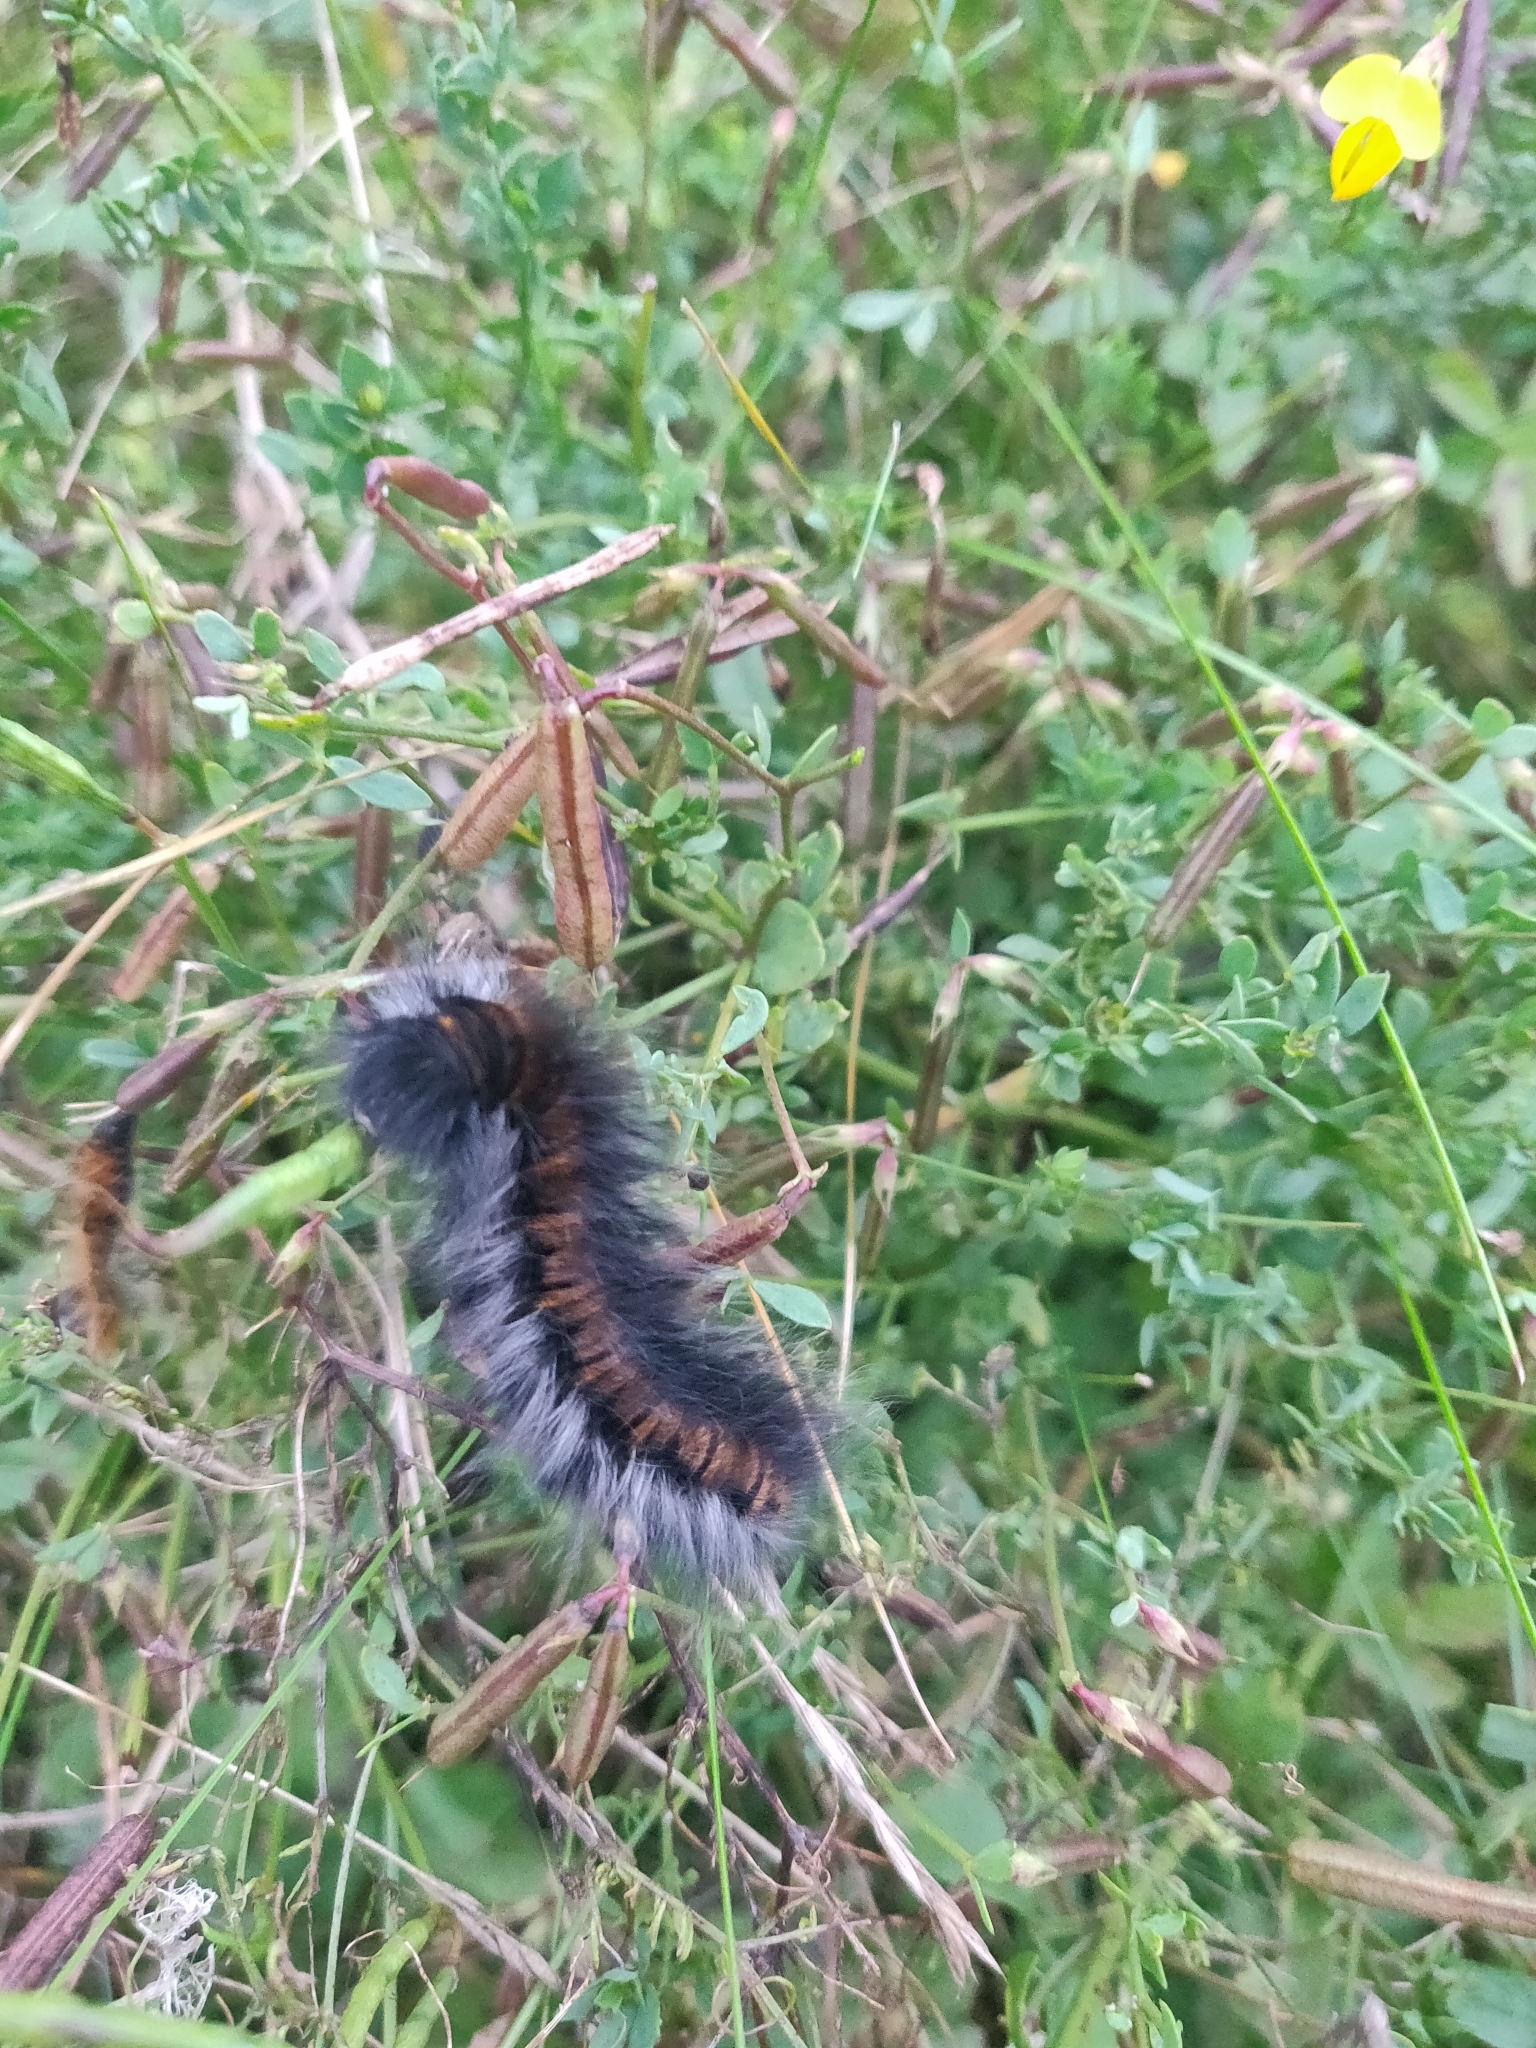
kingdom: Animalia
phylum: Arthropoda
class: Insecta
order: Lepidoptera
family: Lasiocampidae
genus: Macrothylacia
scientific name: Macrothylacia rubi
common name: Fox moth
